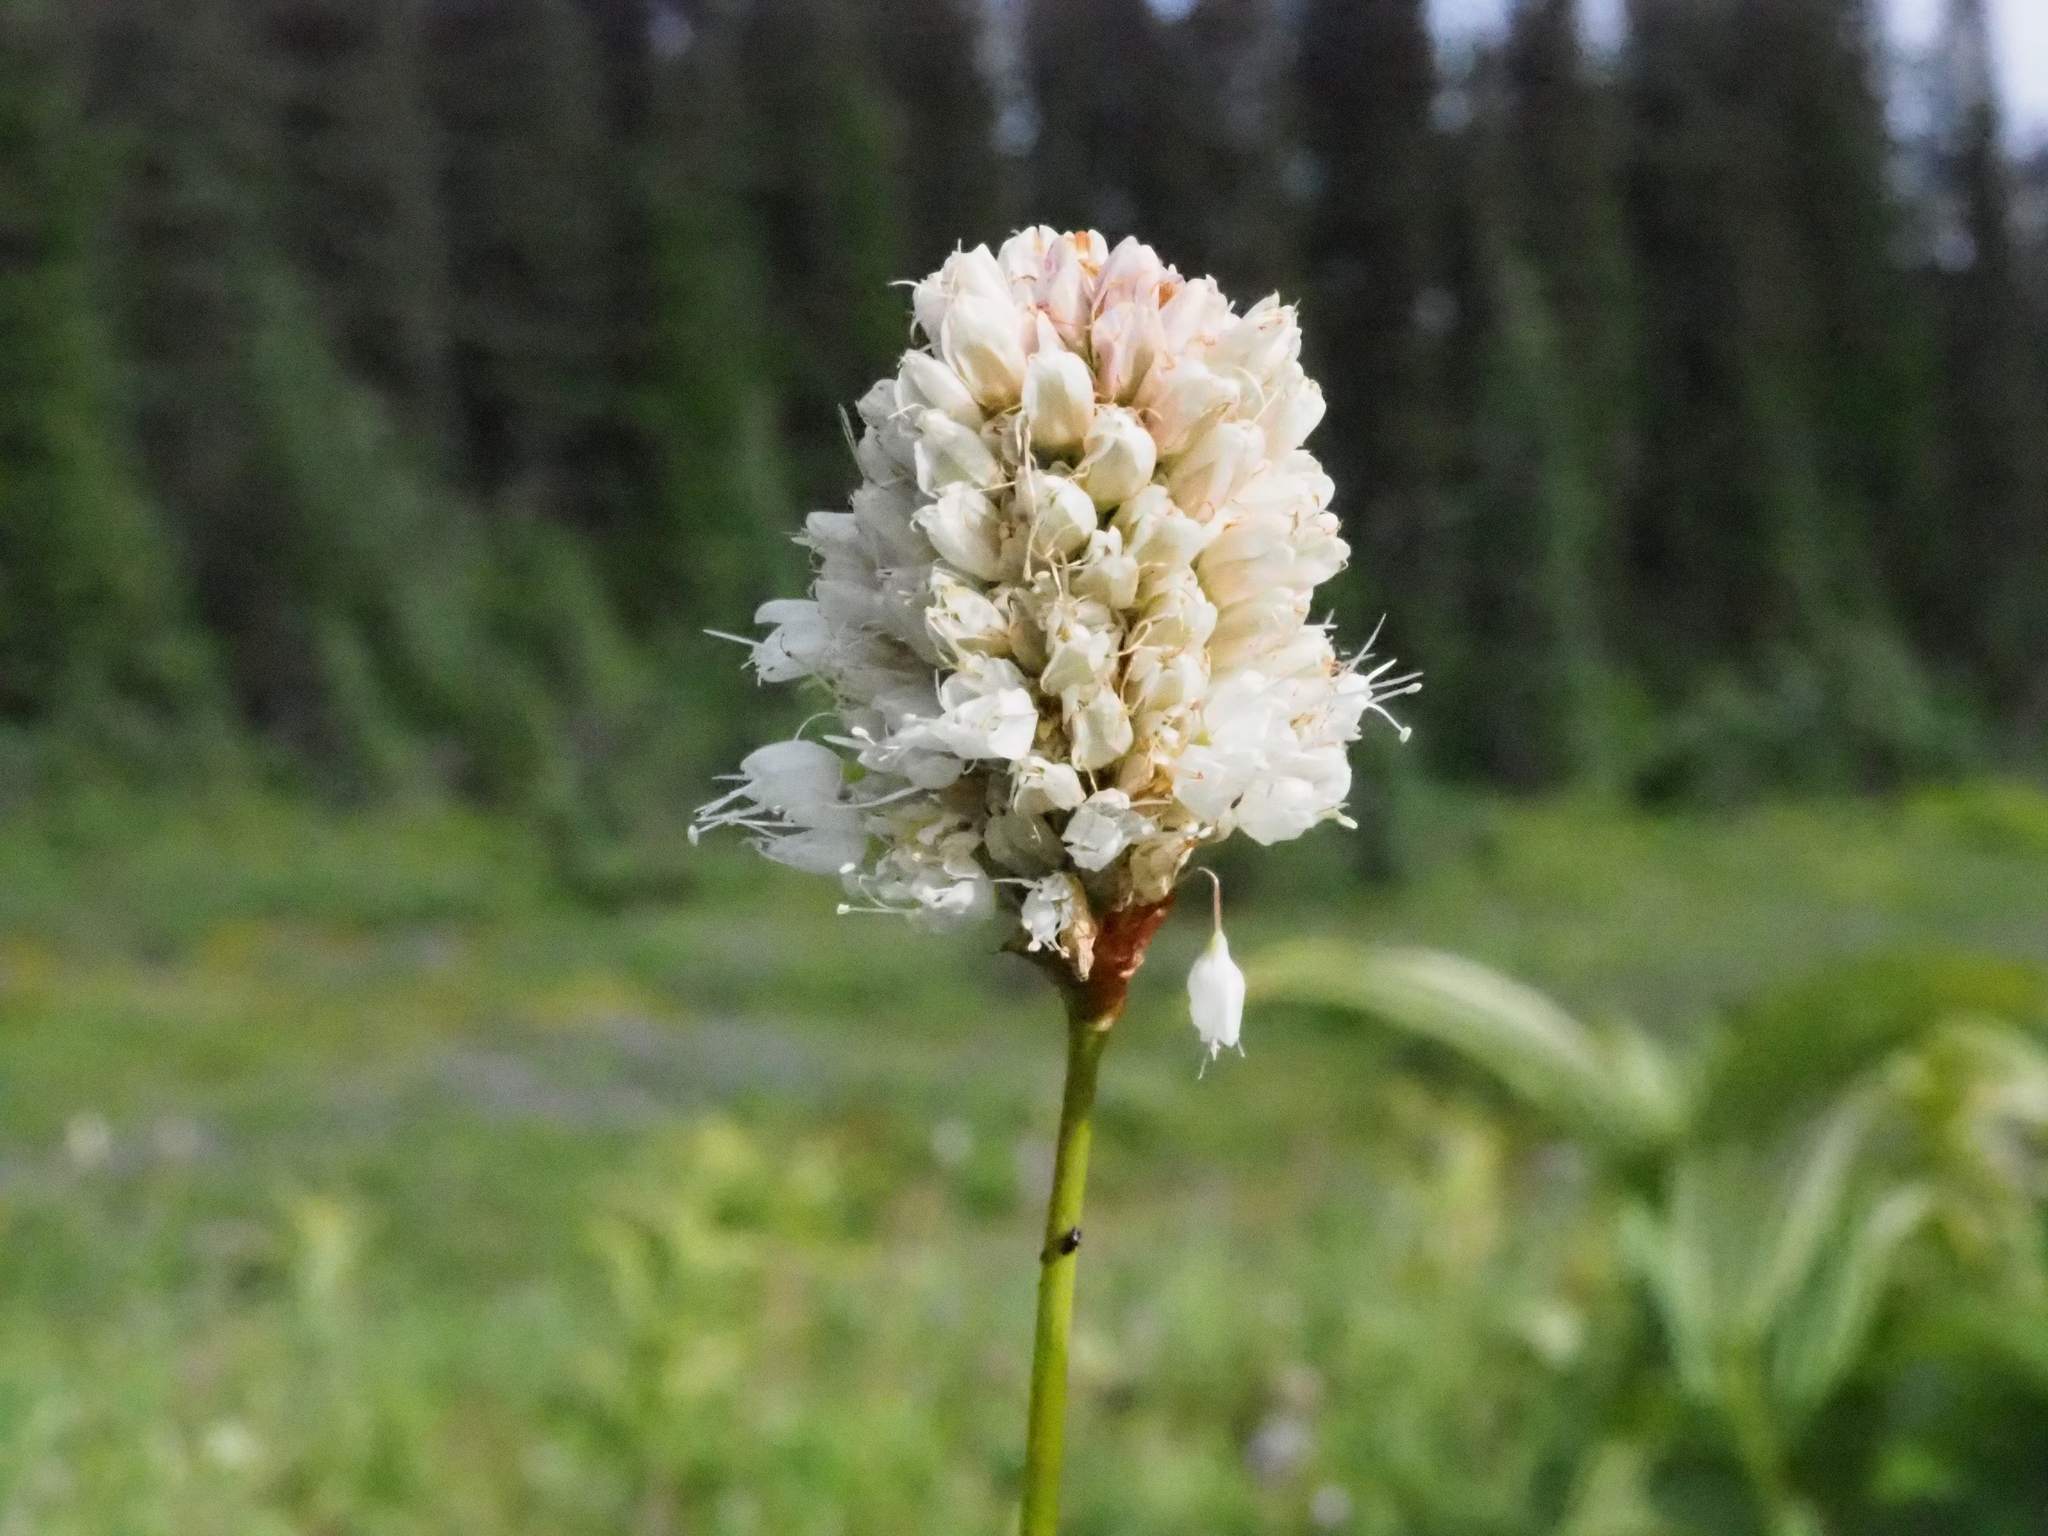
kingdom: Plantae
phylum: Tracheophyta
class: Magnoliopsida
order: Caryophyllales
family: Polygonaceae
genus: Bistorta
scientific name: Bistorta bistortoides
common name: American bistort
